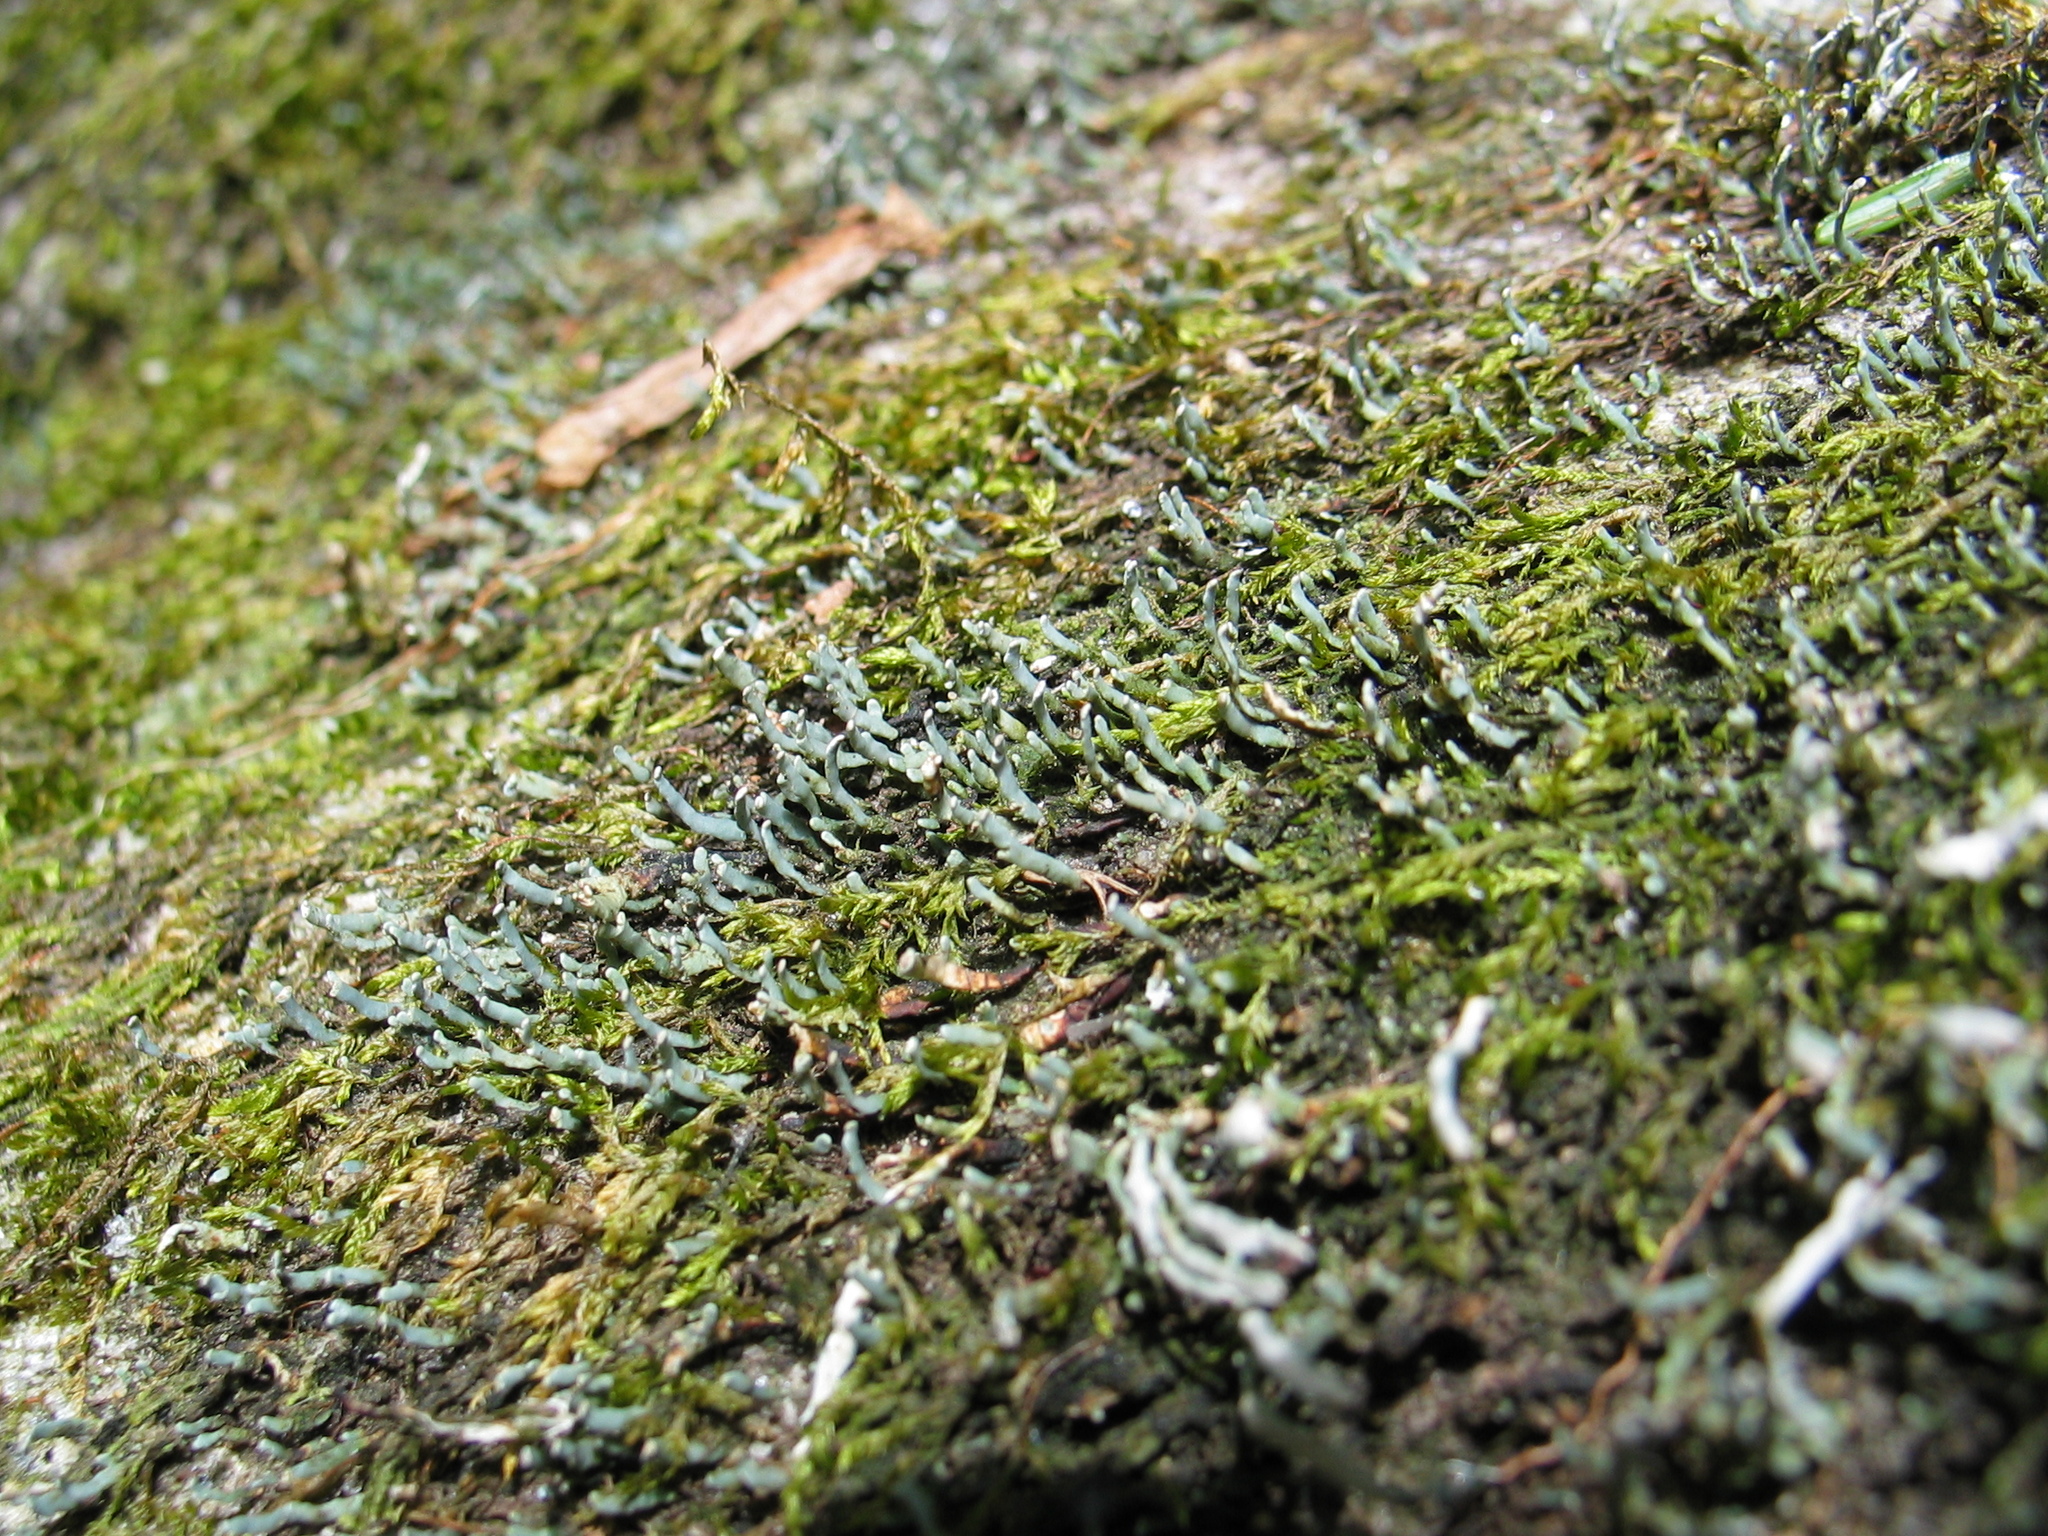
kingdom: Fungi
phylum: Ascomycota
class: Lecanoromycetes
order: Lecanorales
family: Cladoniaceae
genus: Cetradonia
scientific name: Cetradonia linearis
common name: Rock gnome lichen
